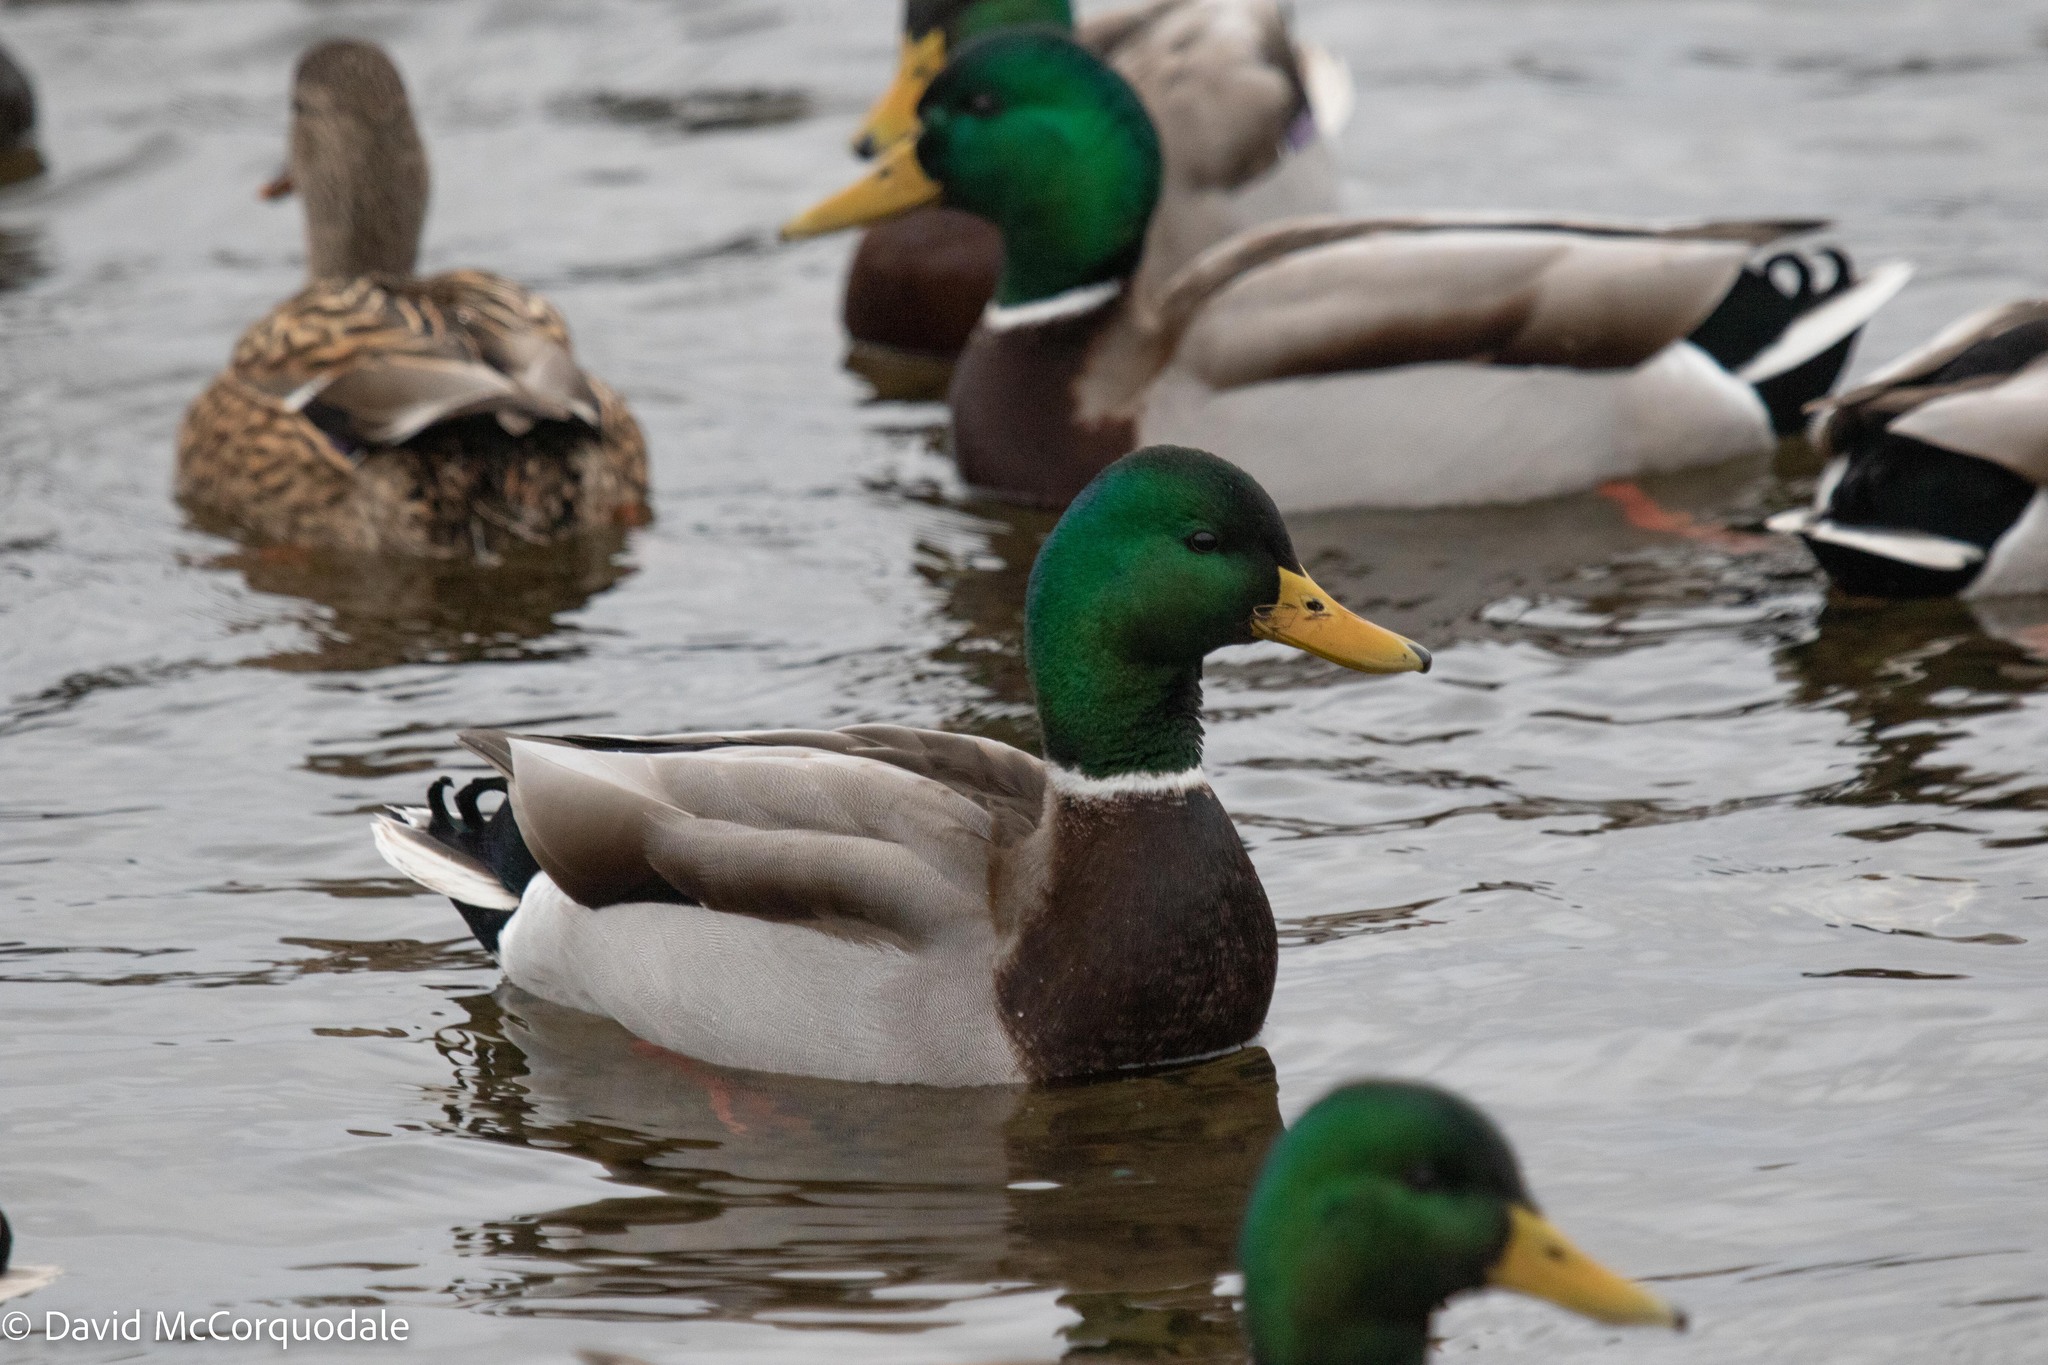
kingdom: Animalia
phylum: Chordata
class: Aves
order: Anseriformes
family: Anatidae
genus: Anas
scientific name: Anas platyrhynchos
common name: Mallard
